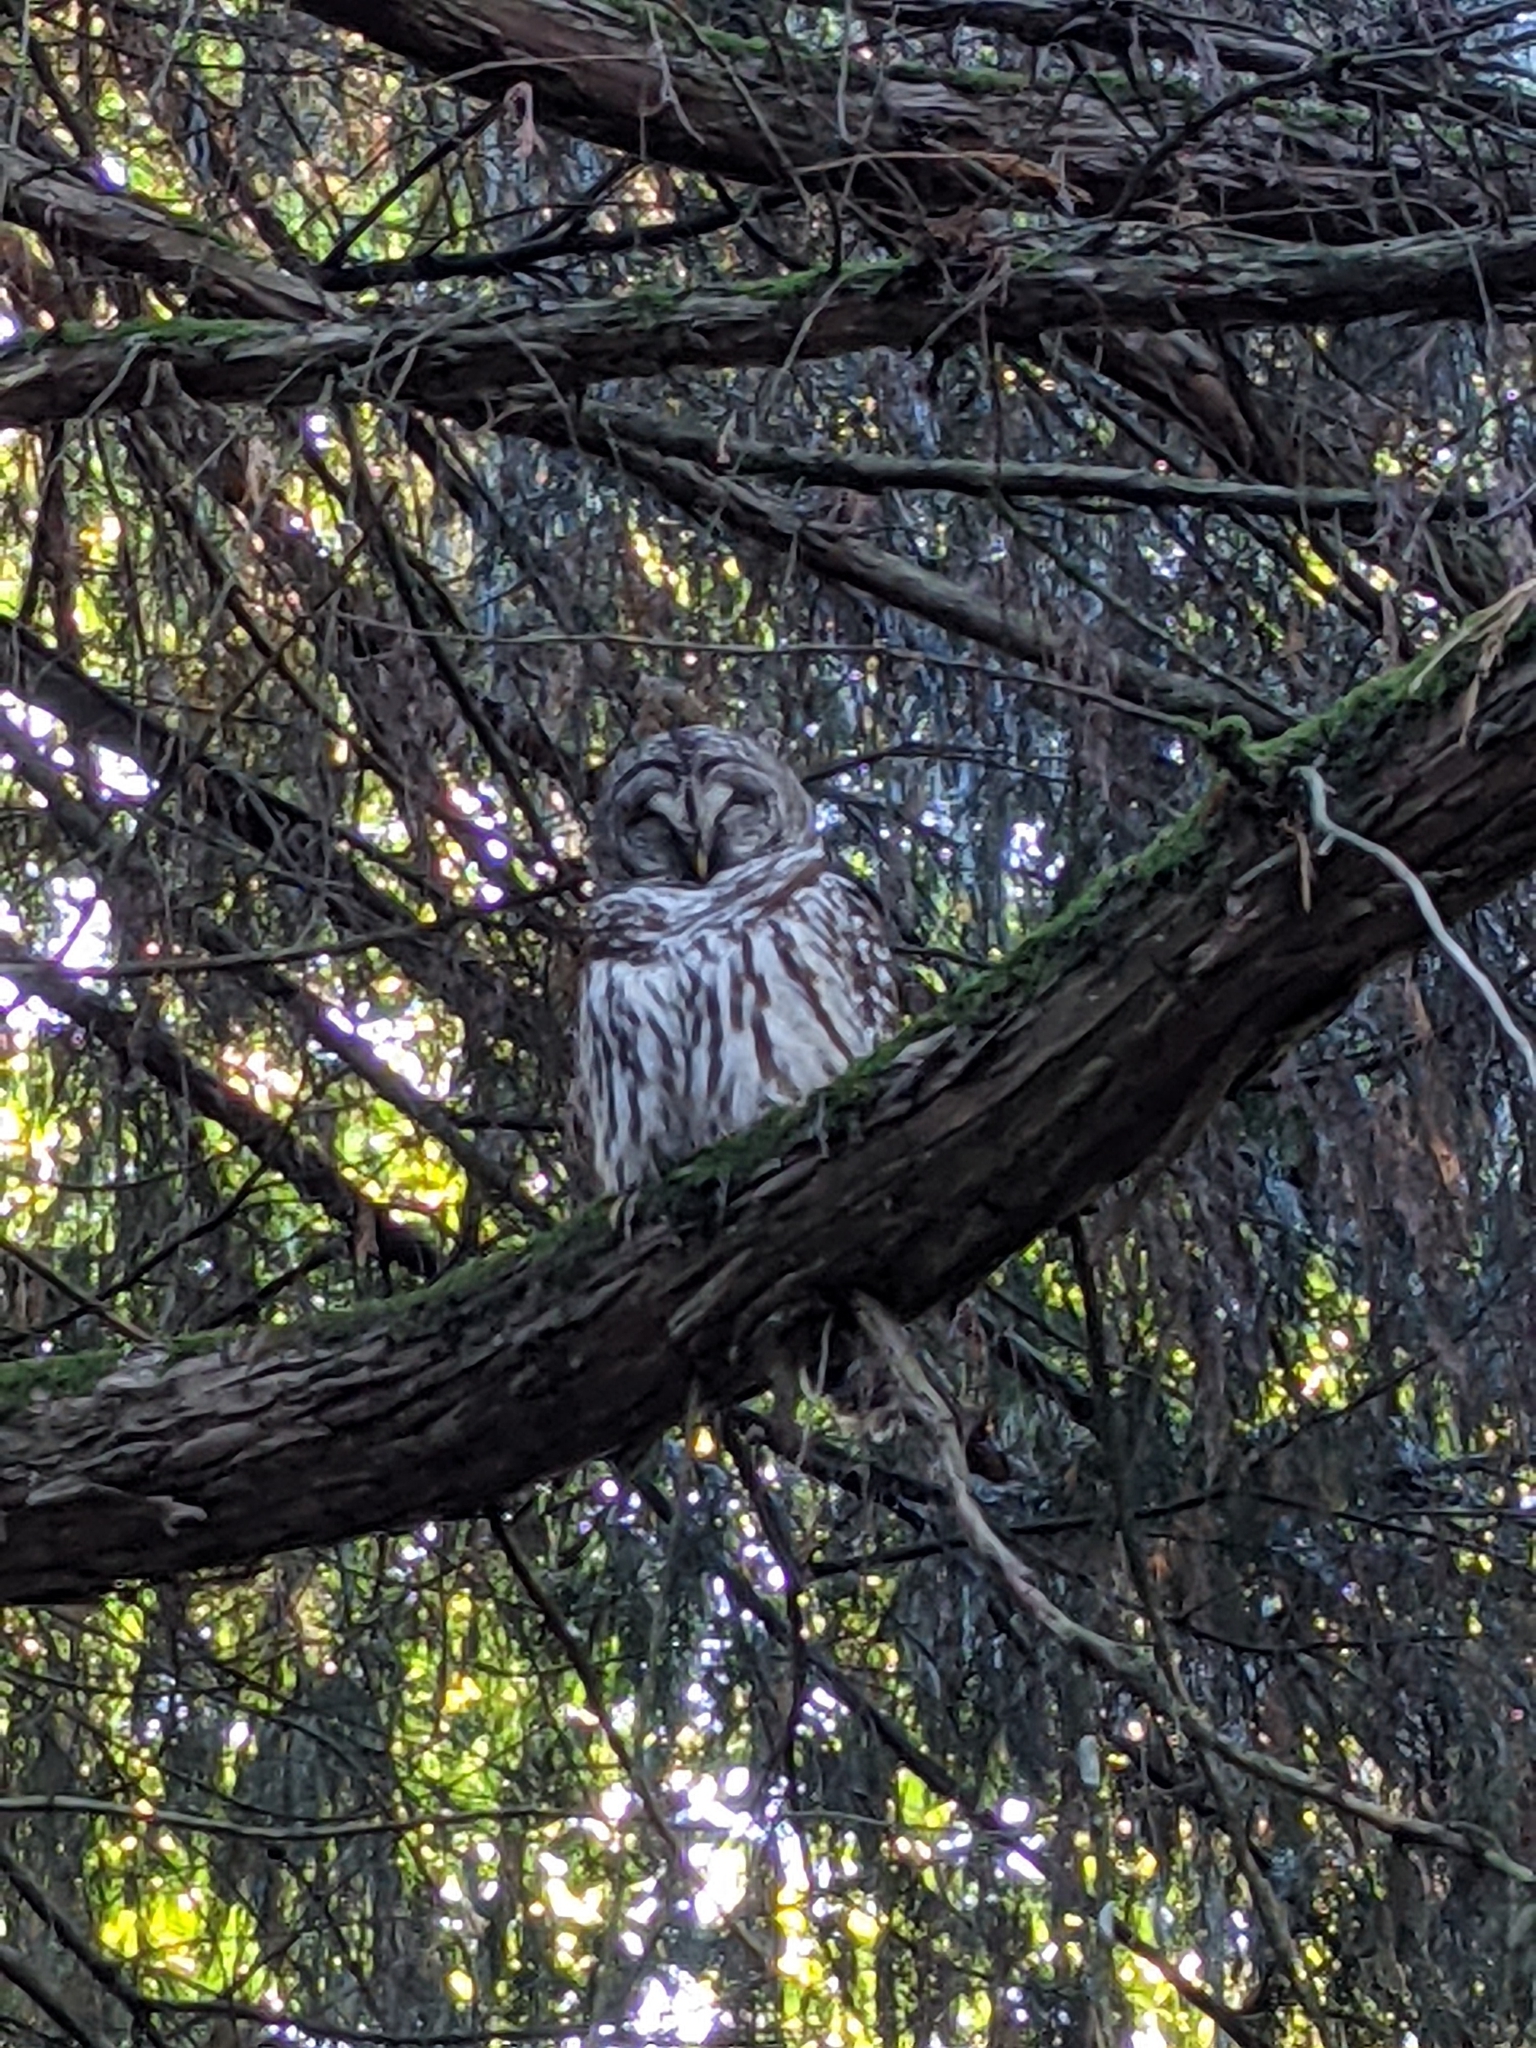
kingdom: Animalia
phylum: Chordata
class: Aves
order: Strigiformes
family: Strigidae
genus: Strix
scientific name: Strix varia
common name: Barred owl
